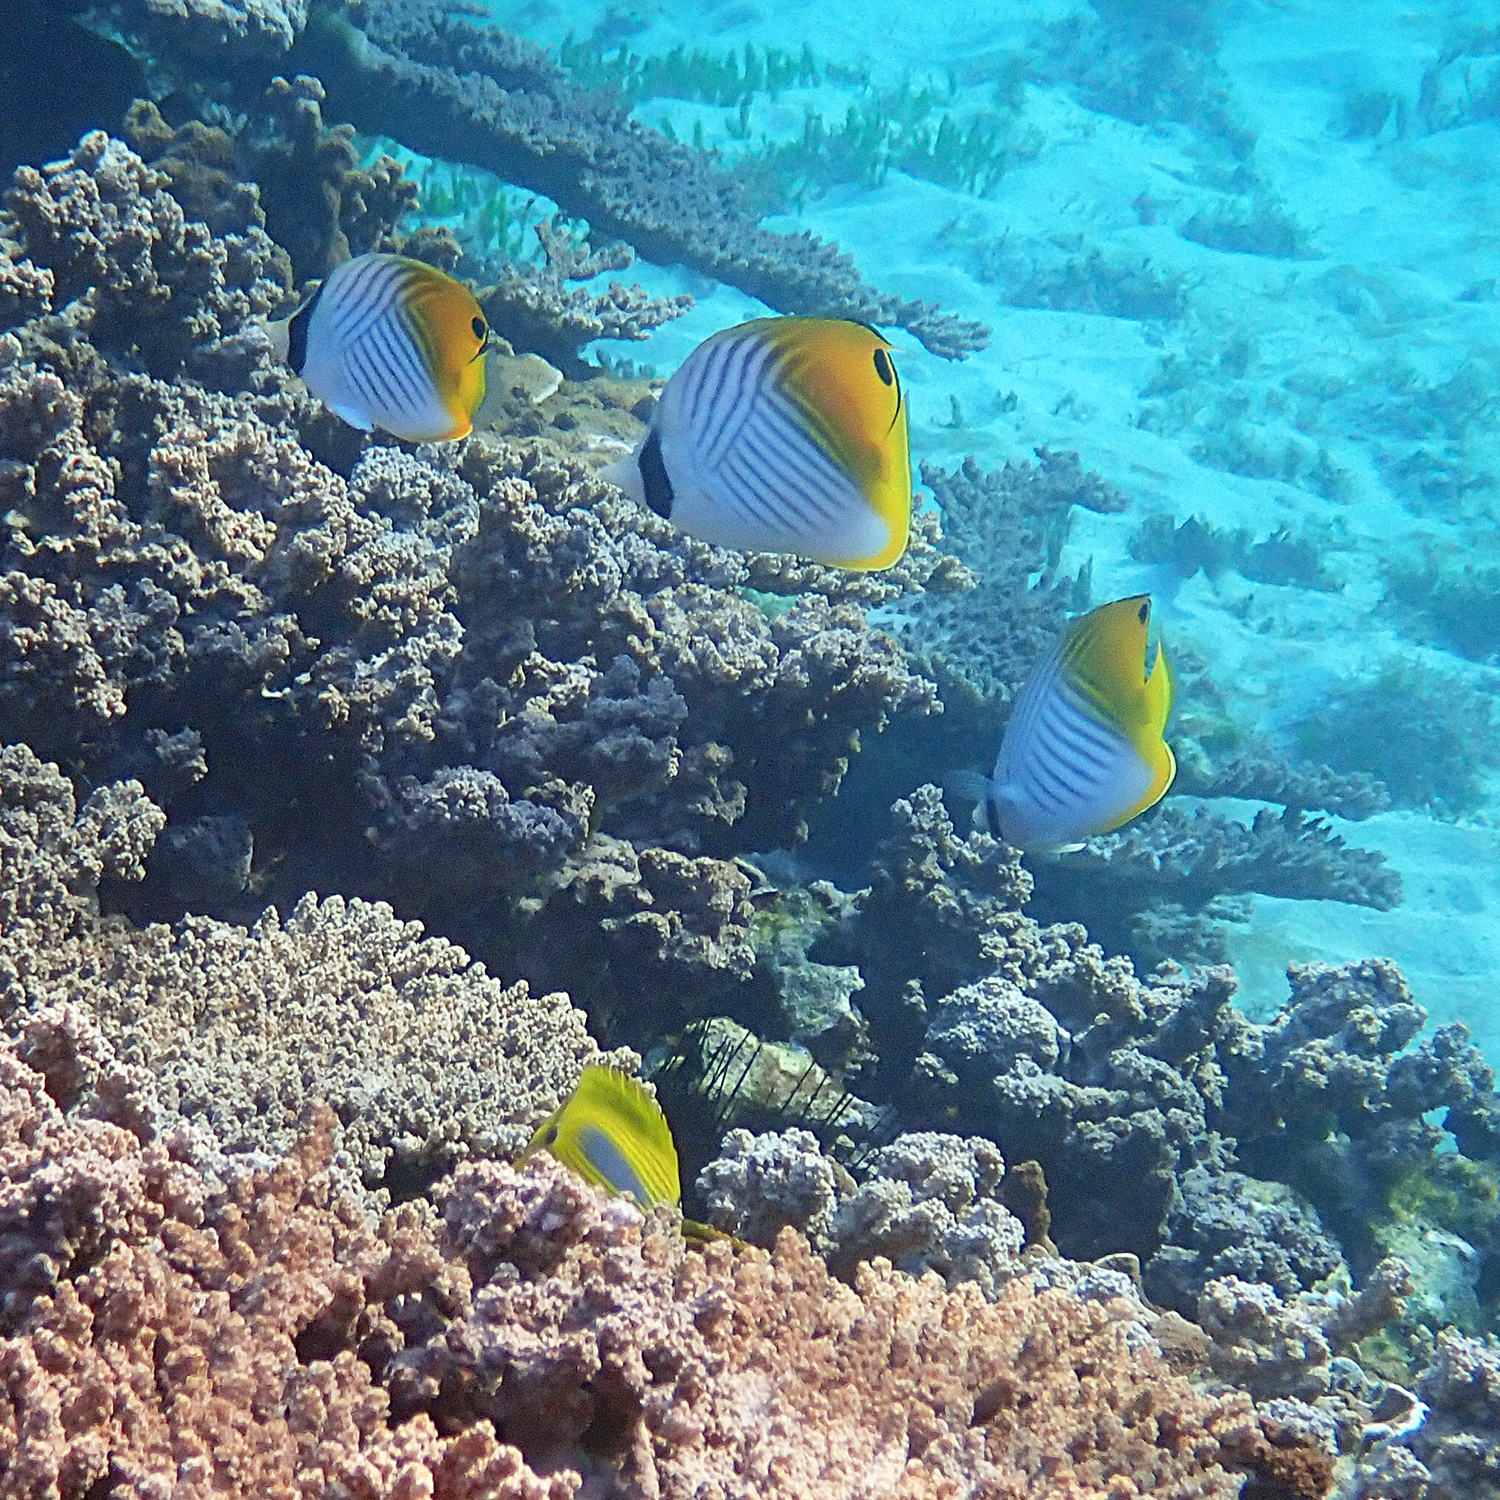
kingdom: Animalia
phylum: Chordata
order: Perciformes
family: Chaetodontidae
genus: Chaetodon
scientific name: Chaetodon auriga
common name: Threadfin butterflyfish
